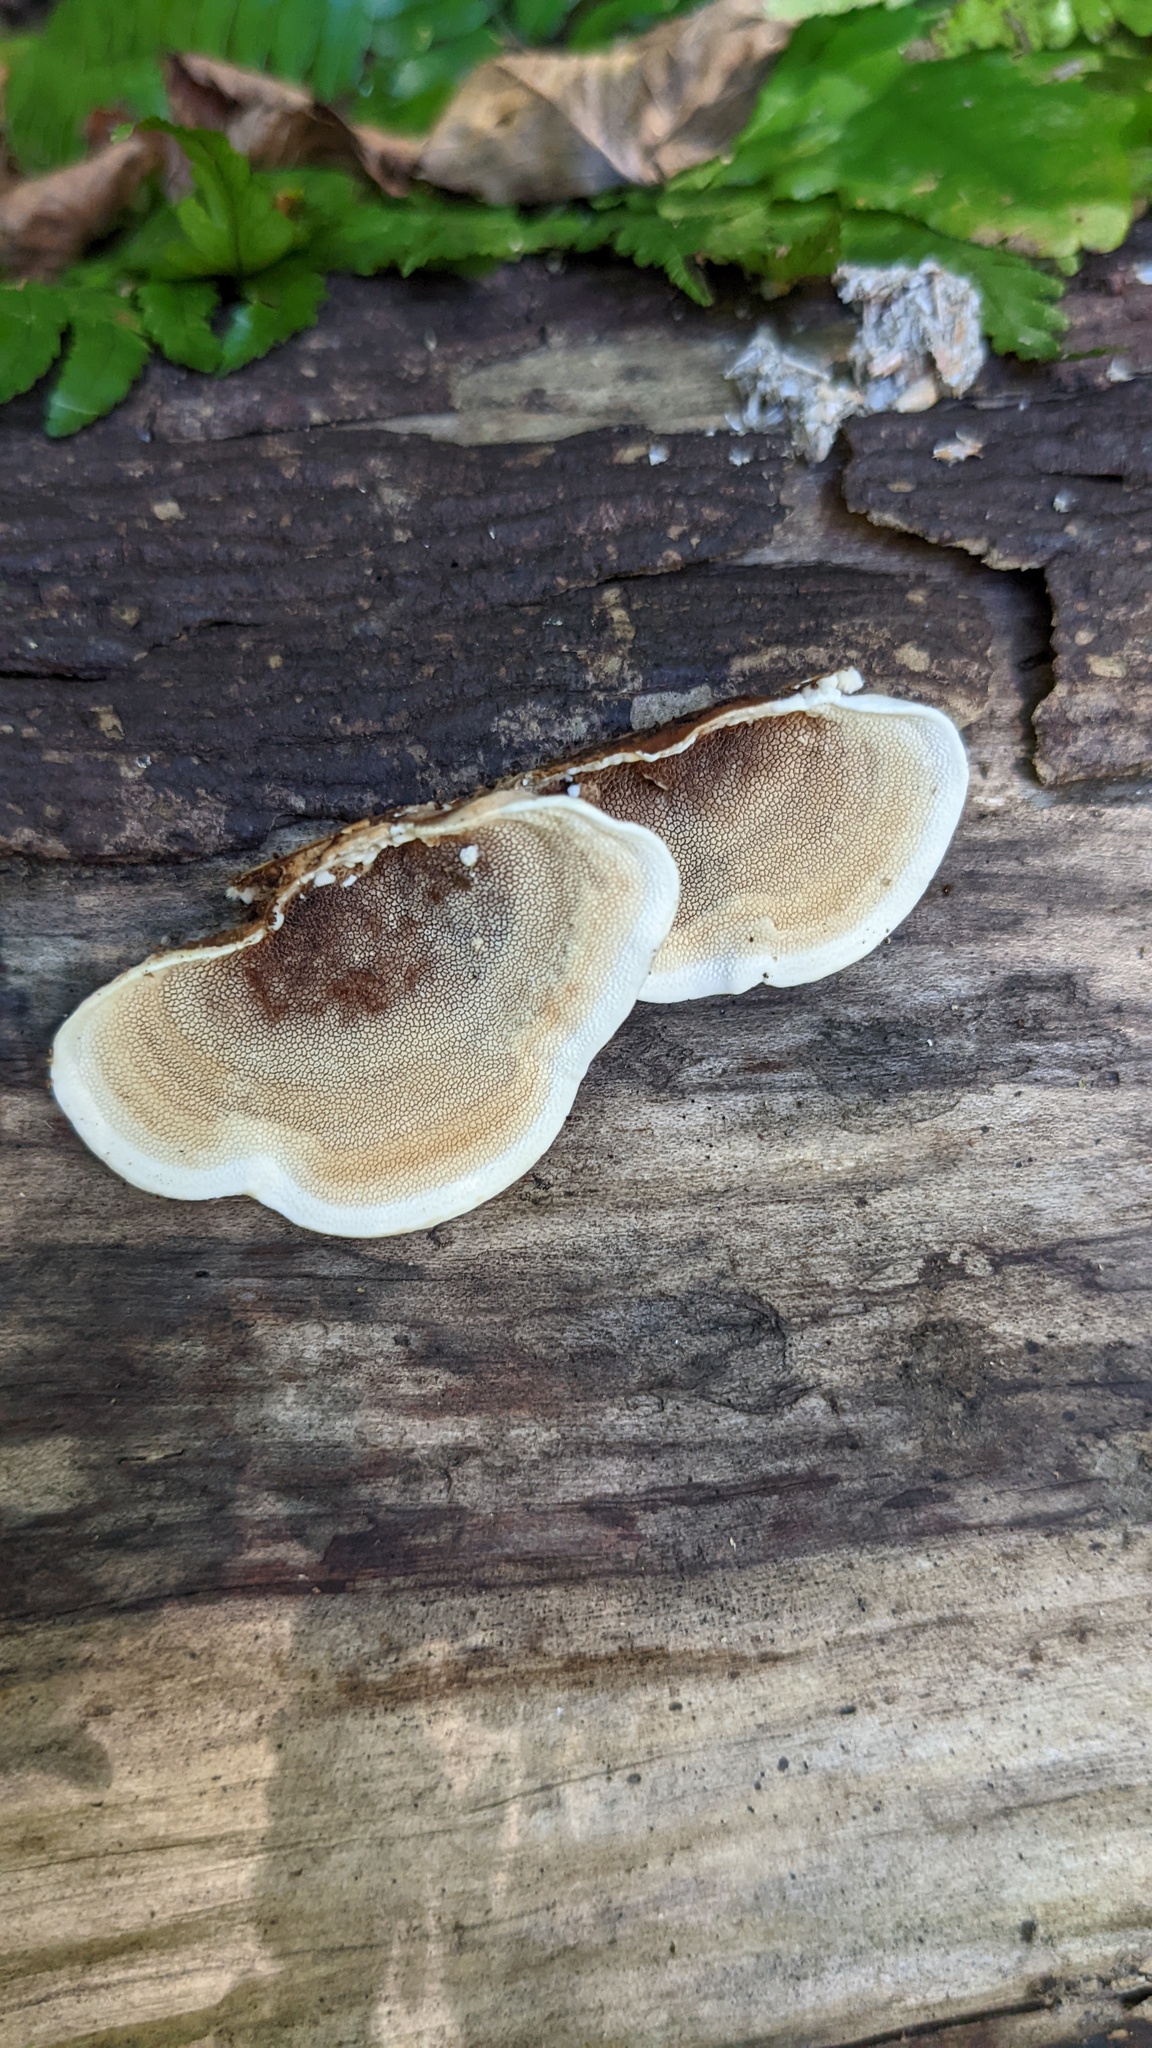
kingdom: Fungi
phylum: Basidiomycota
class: Agaricomycetes
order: Polyporales
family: Steccherinaceae
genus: Metuloidea
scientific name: Metuloidea murashkinskyi
